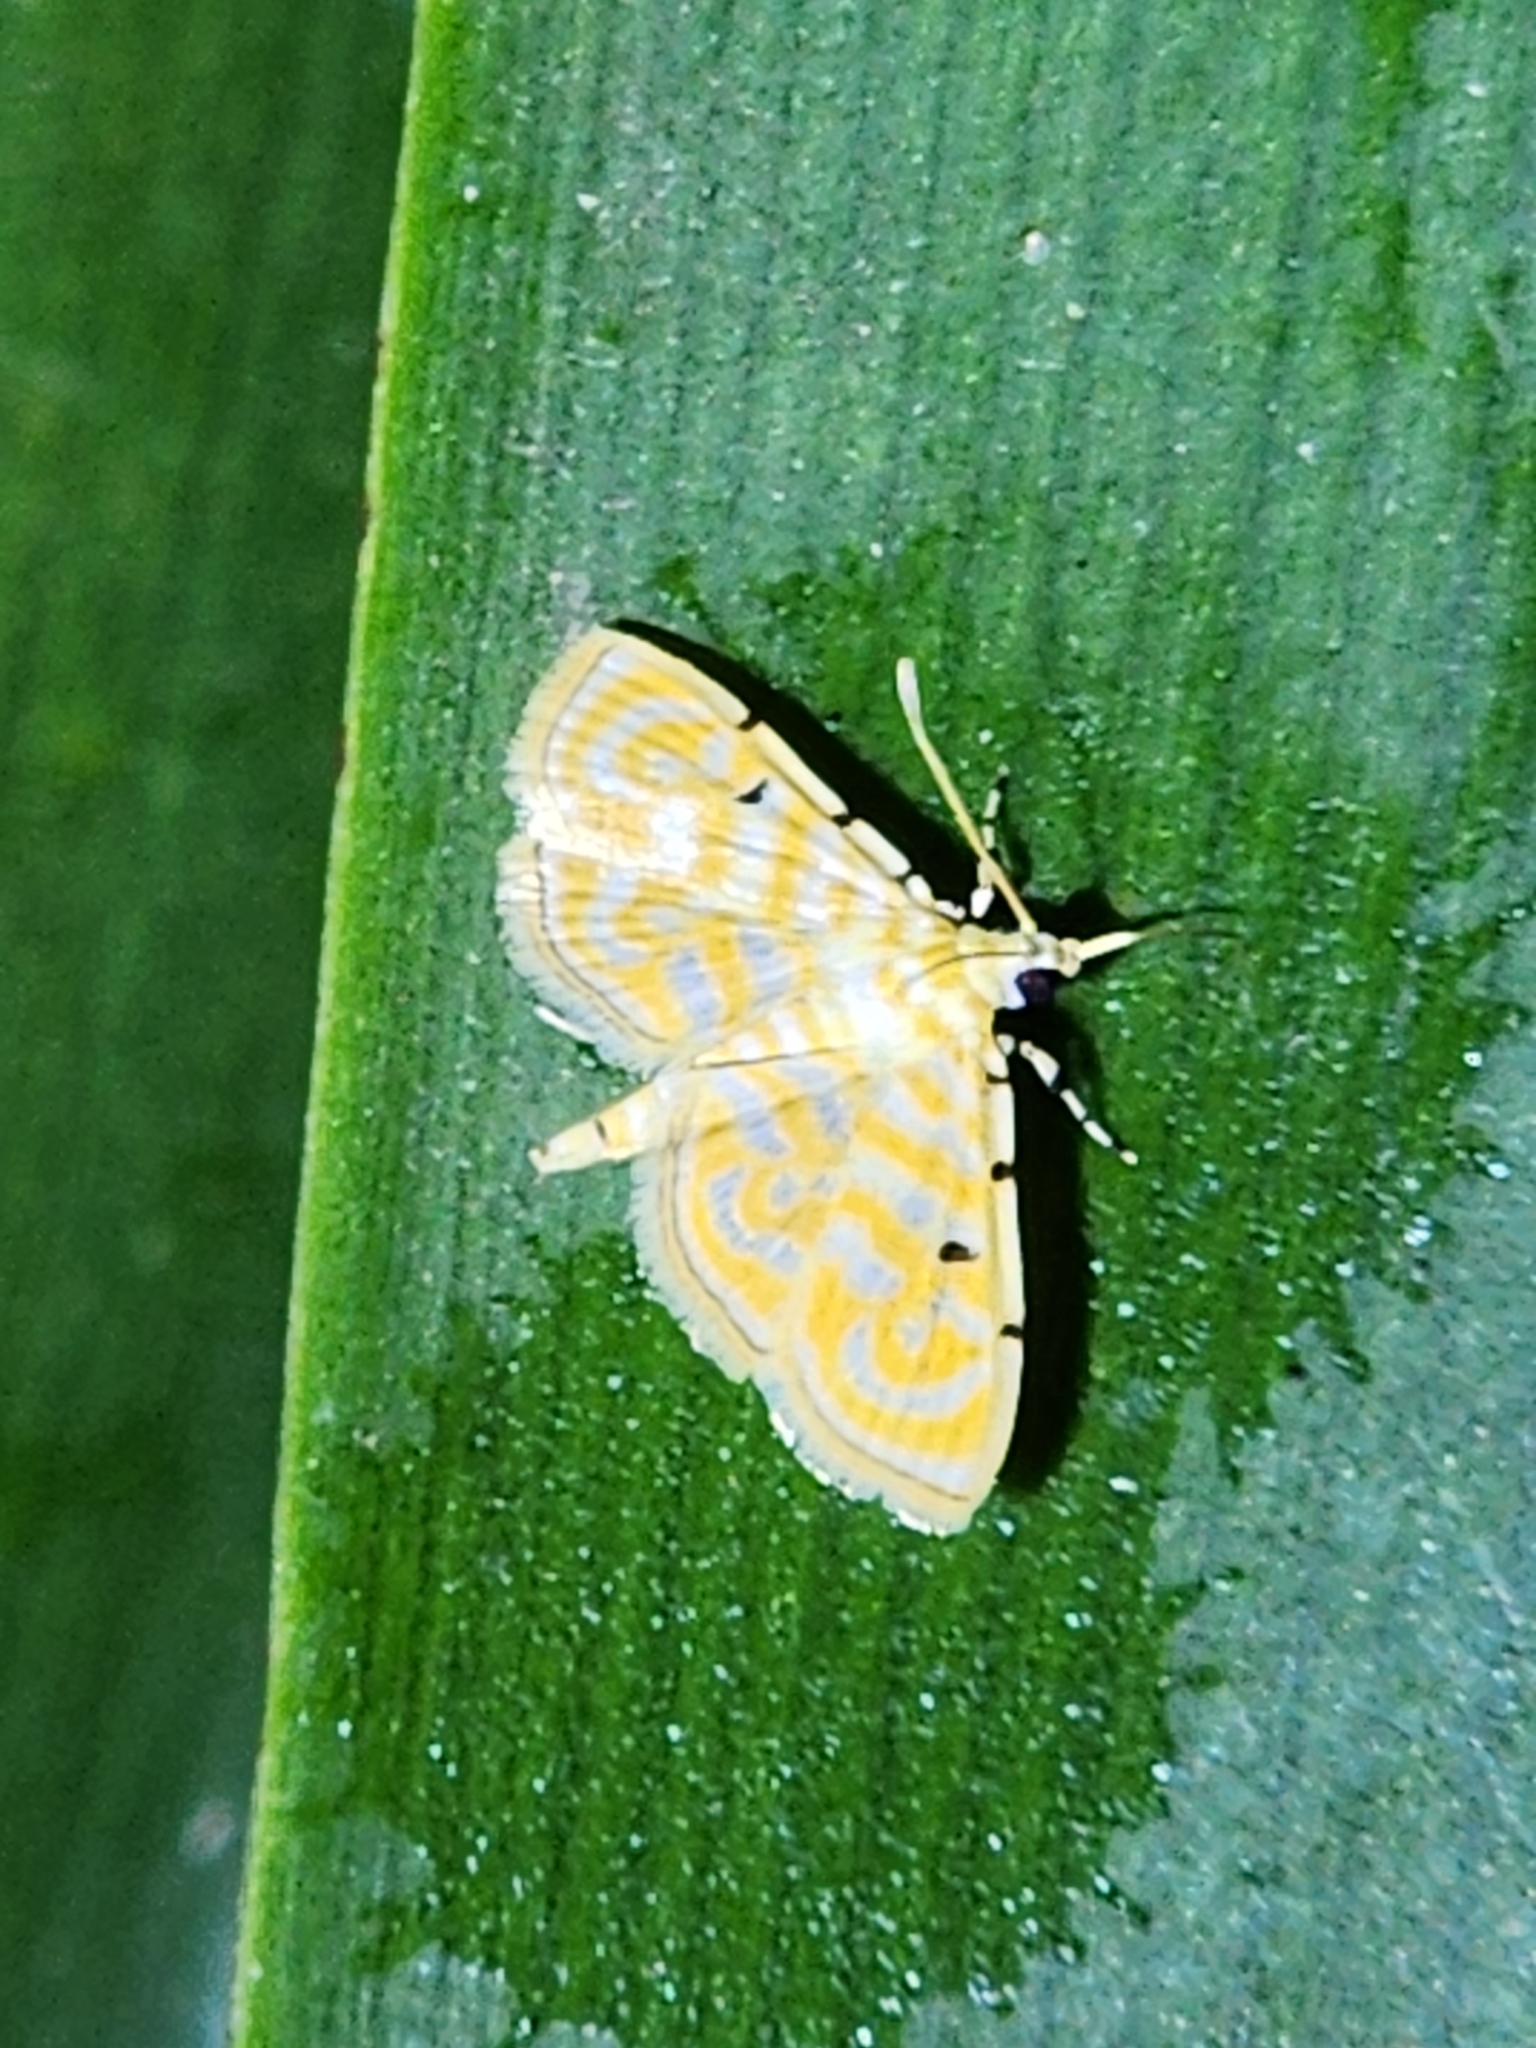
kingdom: Animalia
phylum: Arthropoda
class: Insecta
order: Lepidoptera
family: Crambidae
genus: Notarcha
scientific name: Notarcha aurolinealis
